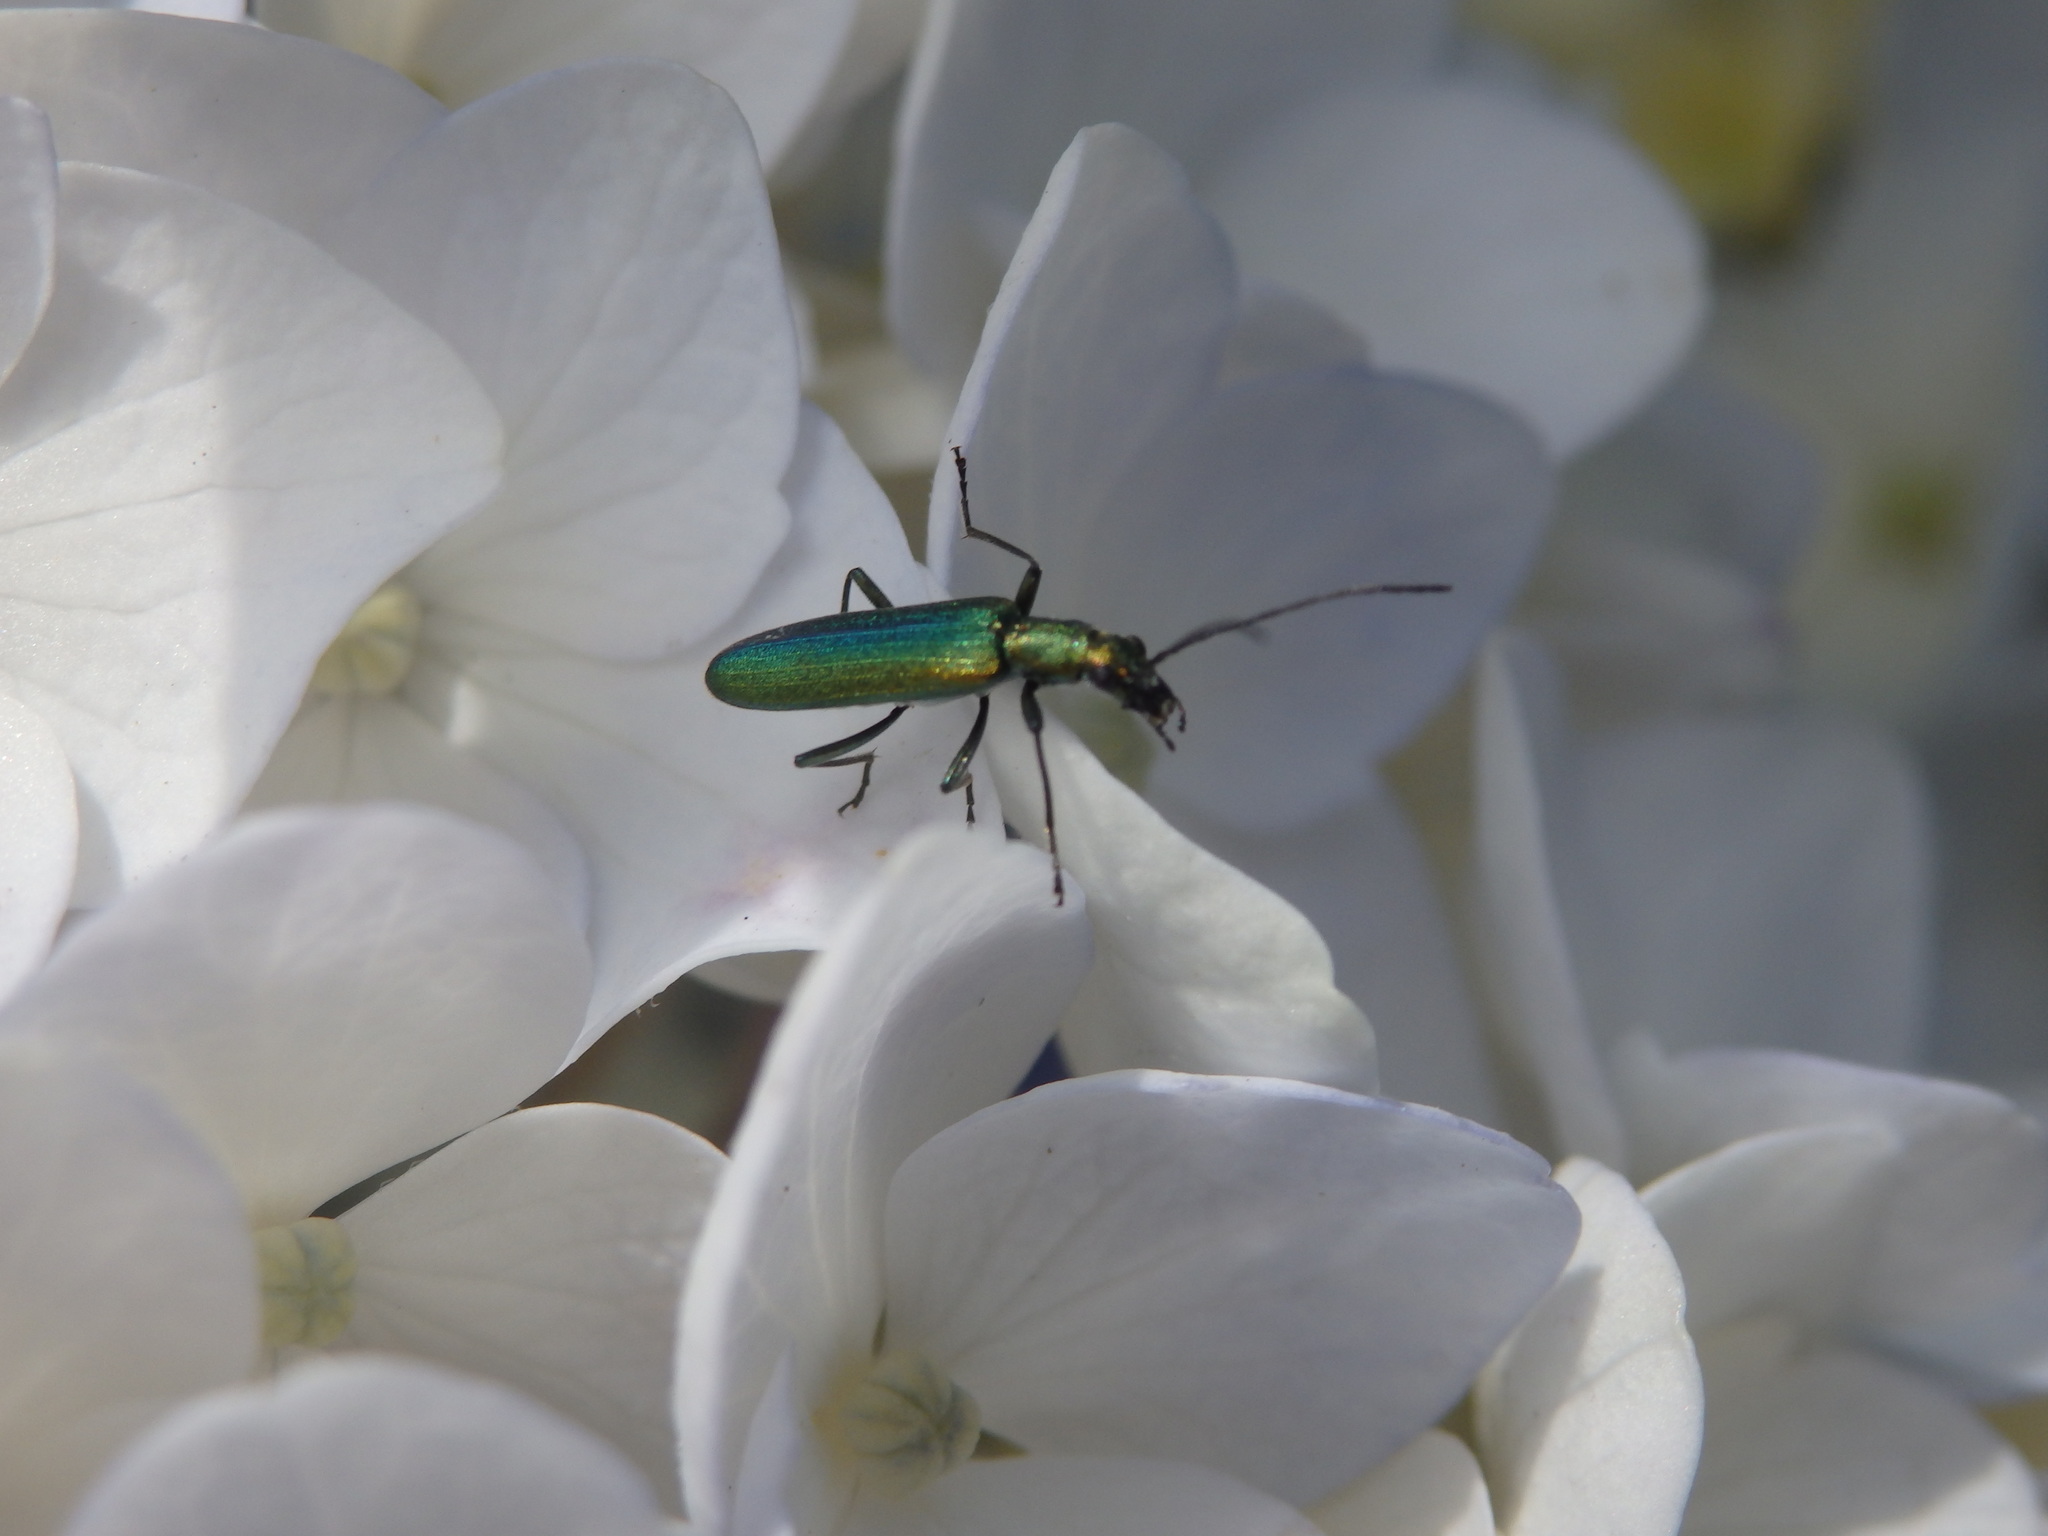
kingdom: Animalia
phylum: Arthropoda
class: Insecta
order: Coleoptera
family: Oedemeridae
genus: Chrysanthia
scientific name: Chrysanthia reitteri
